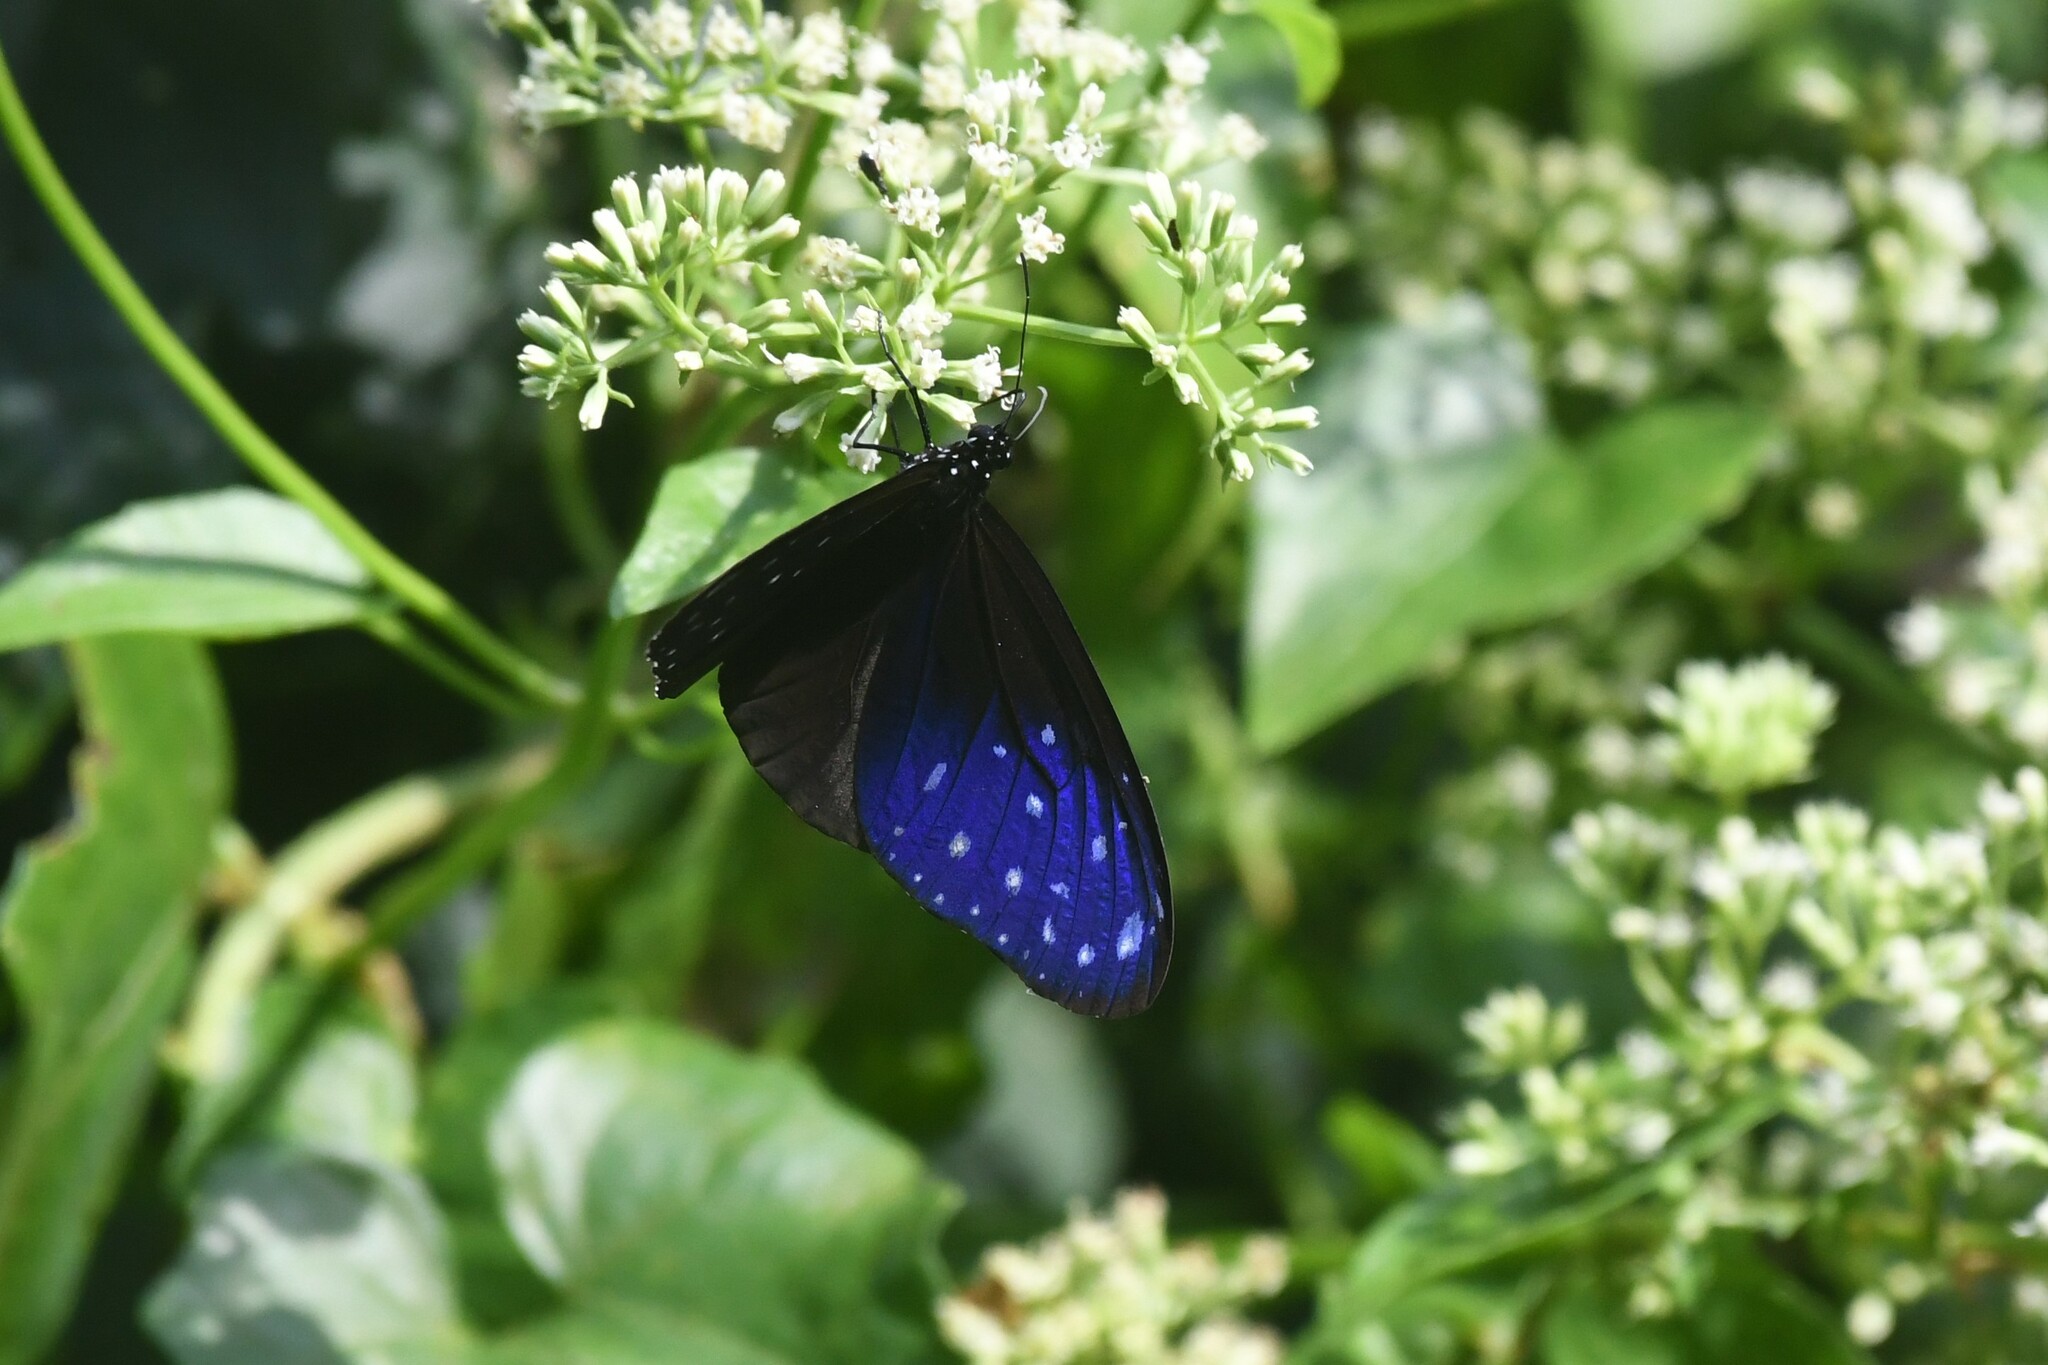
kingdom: Animalia
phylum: Arthropoda
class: Insecta
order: Lepidoptera
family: Nymphalidae
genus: Euploea
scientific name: Euploea mulciber
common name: Striped blue crow butterfly
